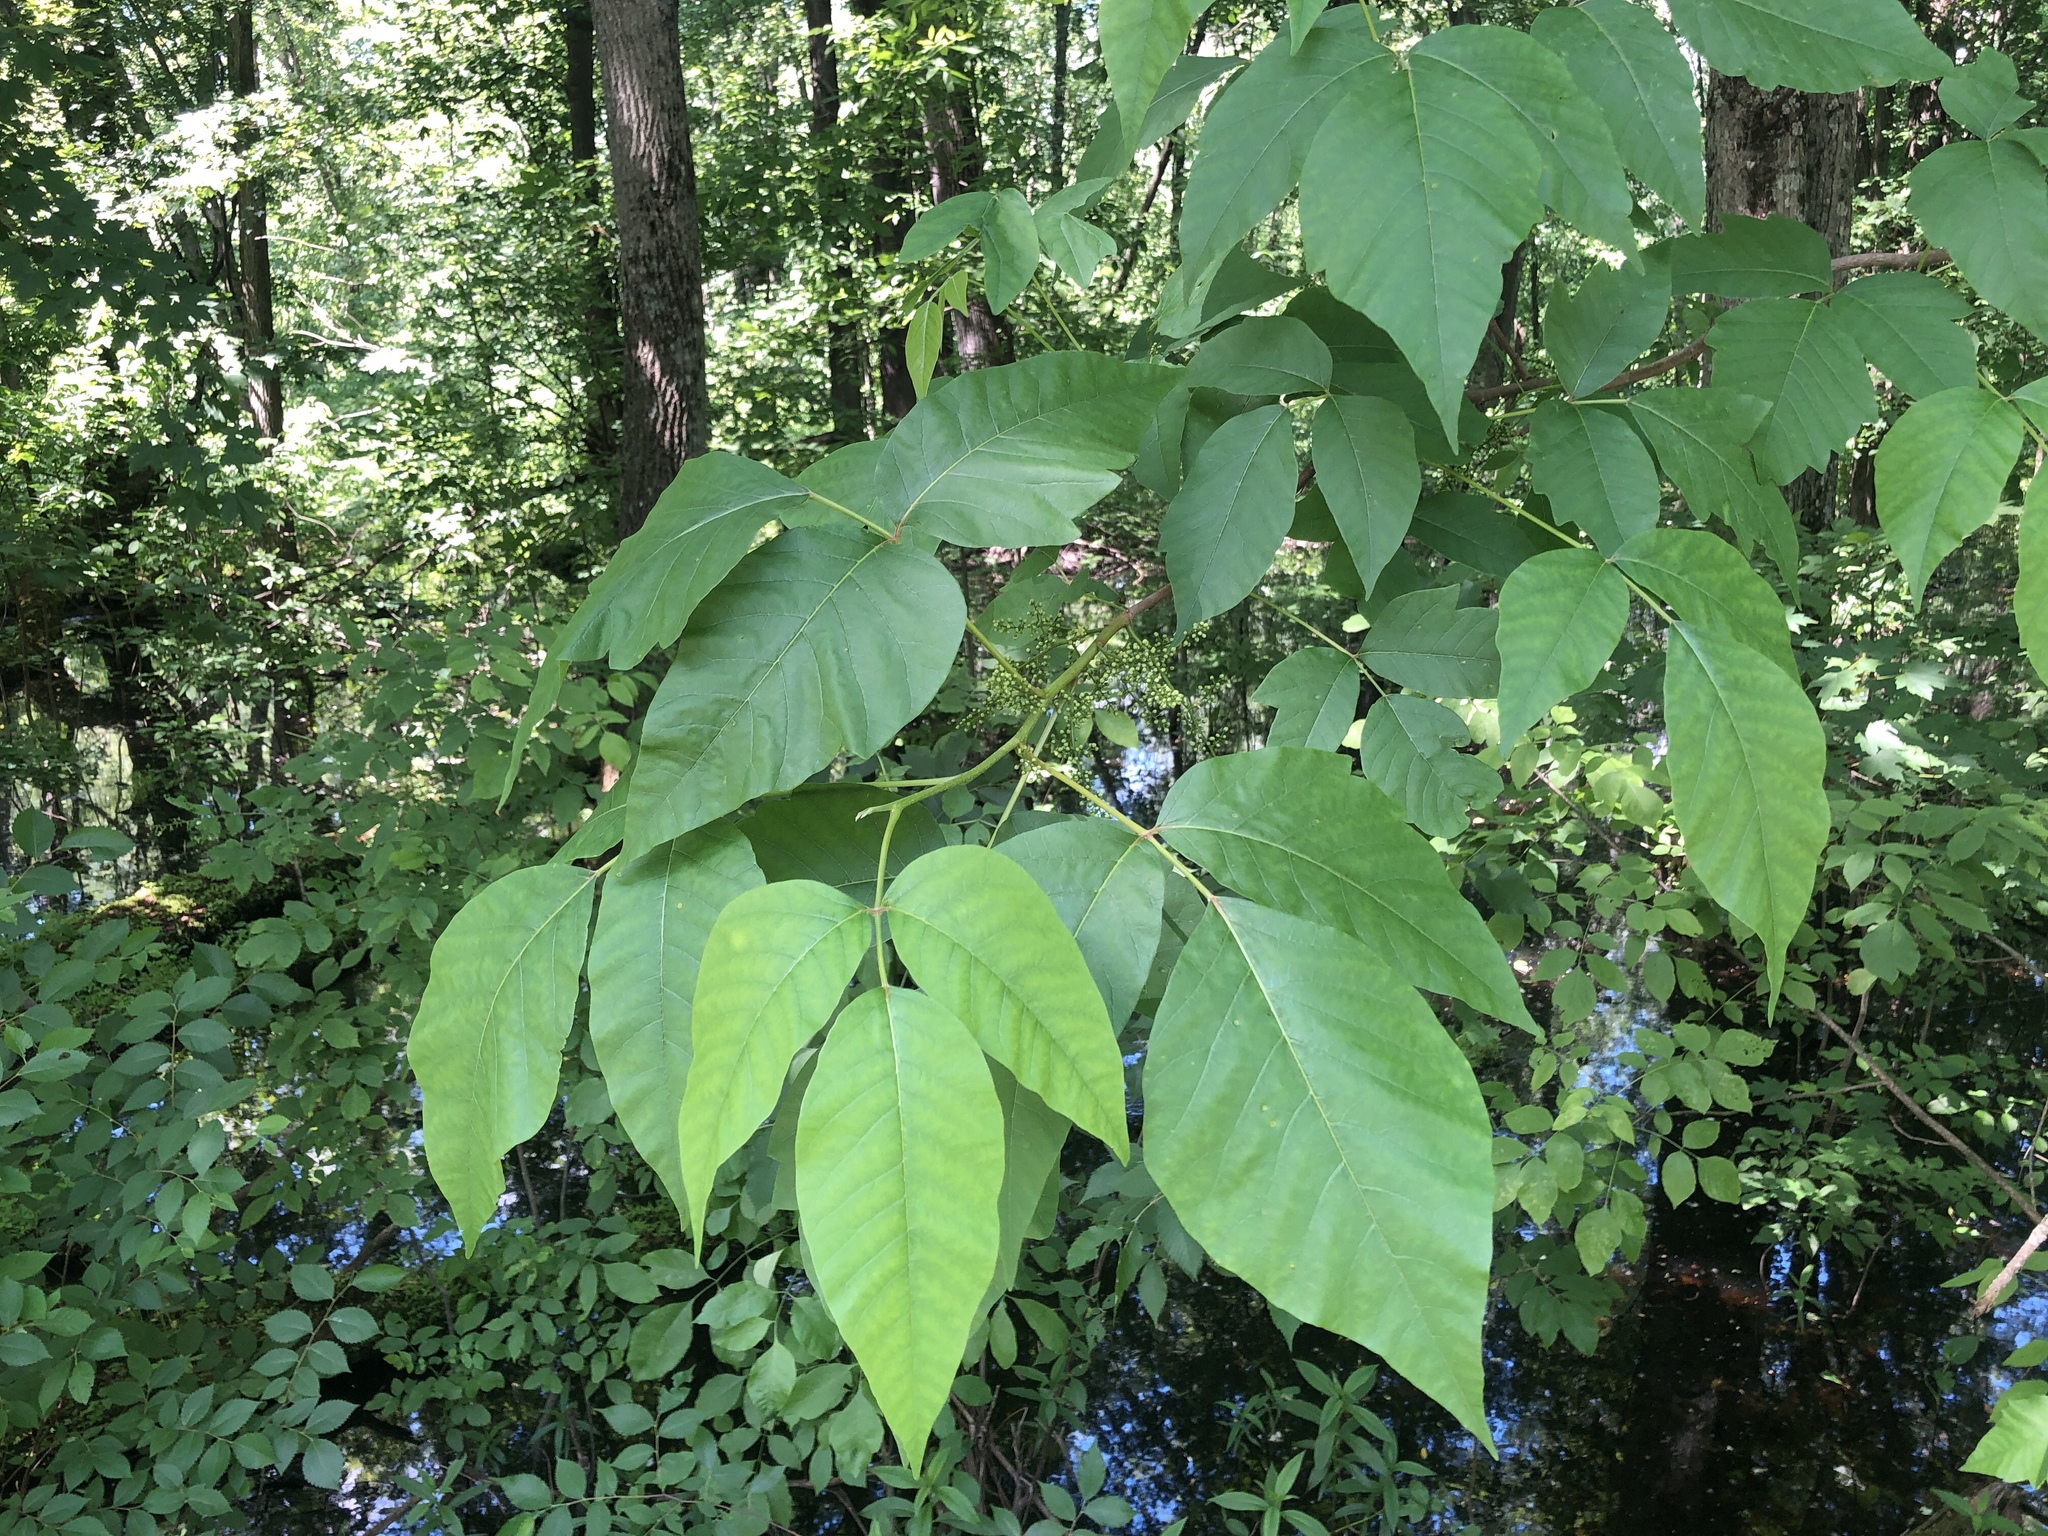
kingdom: Plantae
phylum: Tracheophyta
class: Magnoliopsida
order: Sapindales
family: Anacardiaceae
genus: Toxicodendron
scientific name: Toxicodendron radicans
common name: Poison ivy
